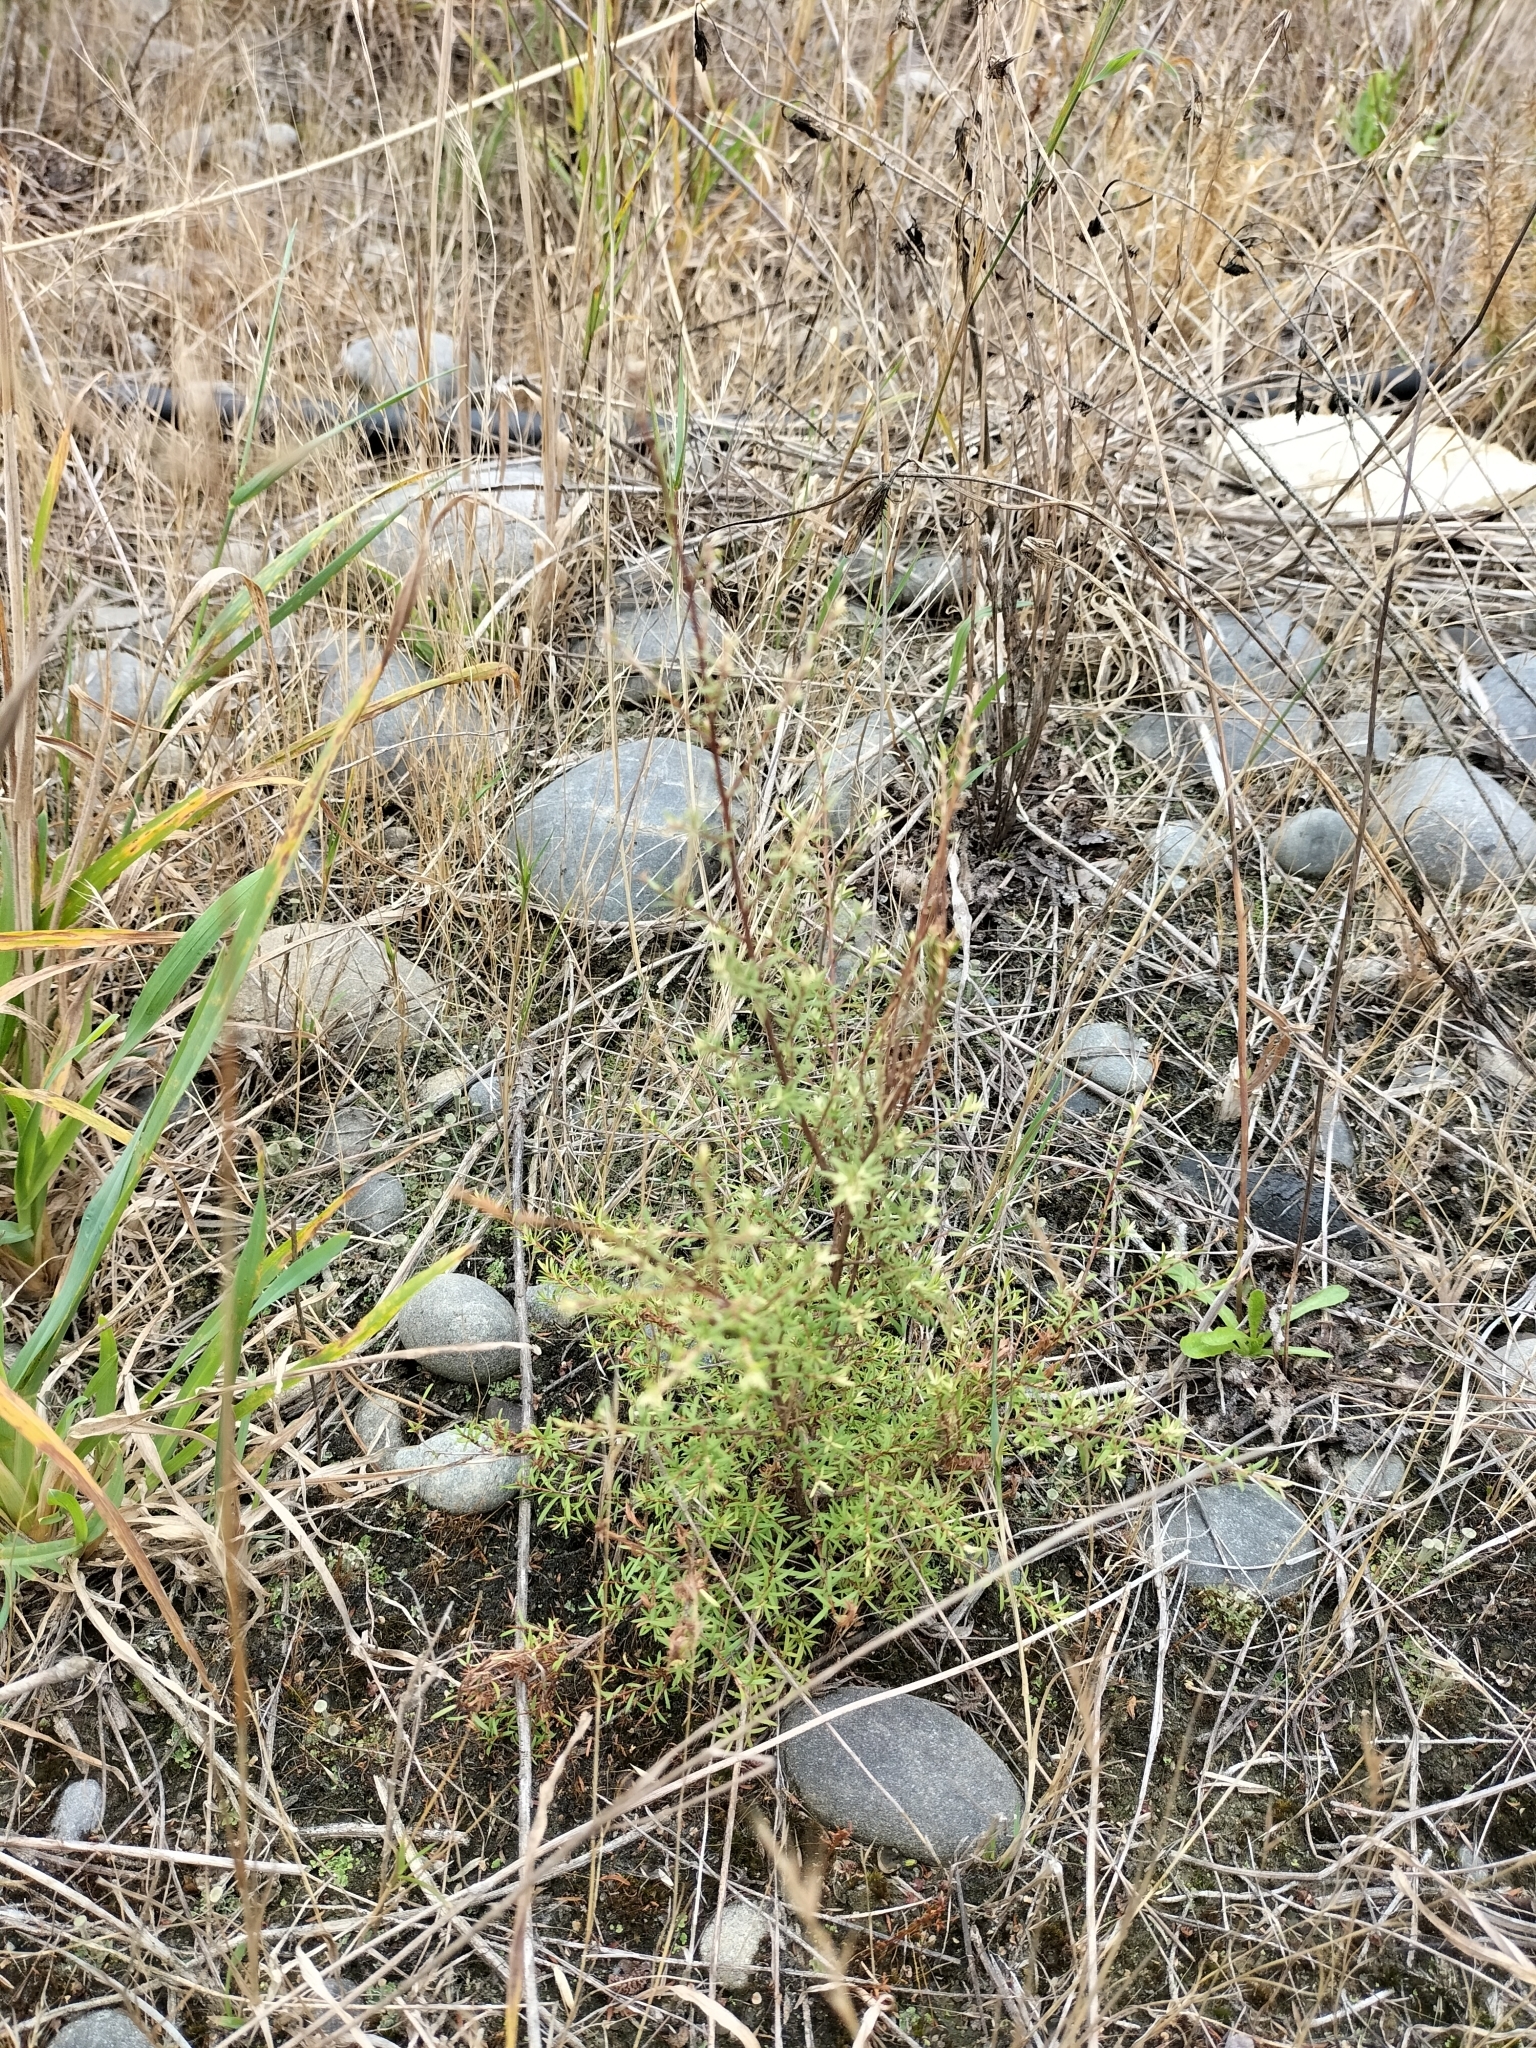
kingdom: Plantae
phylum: Tracheophyta
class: Magnoliopsida
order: Myrtales
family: Myrtaceae
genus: Kunzea
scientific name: Kunzea robusta
